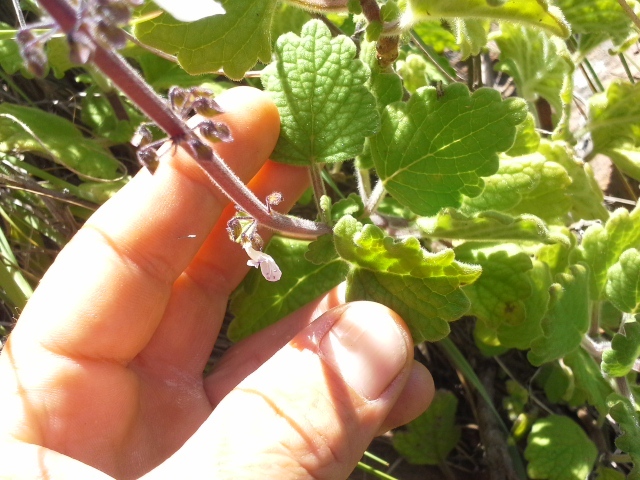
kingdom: Plantae
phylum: Tracheophyta
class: Magnoliopsida
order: Lamiales
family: Lamiaceae
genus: Coleus
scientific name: Coleus hadiensis
